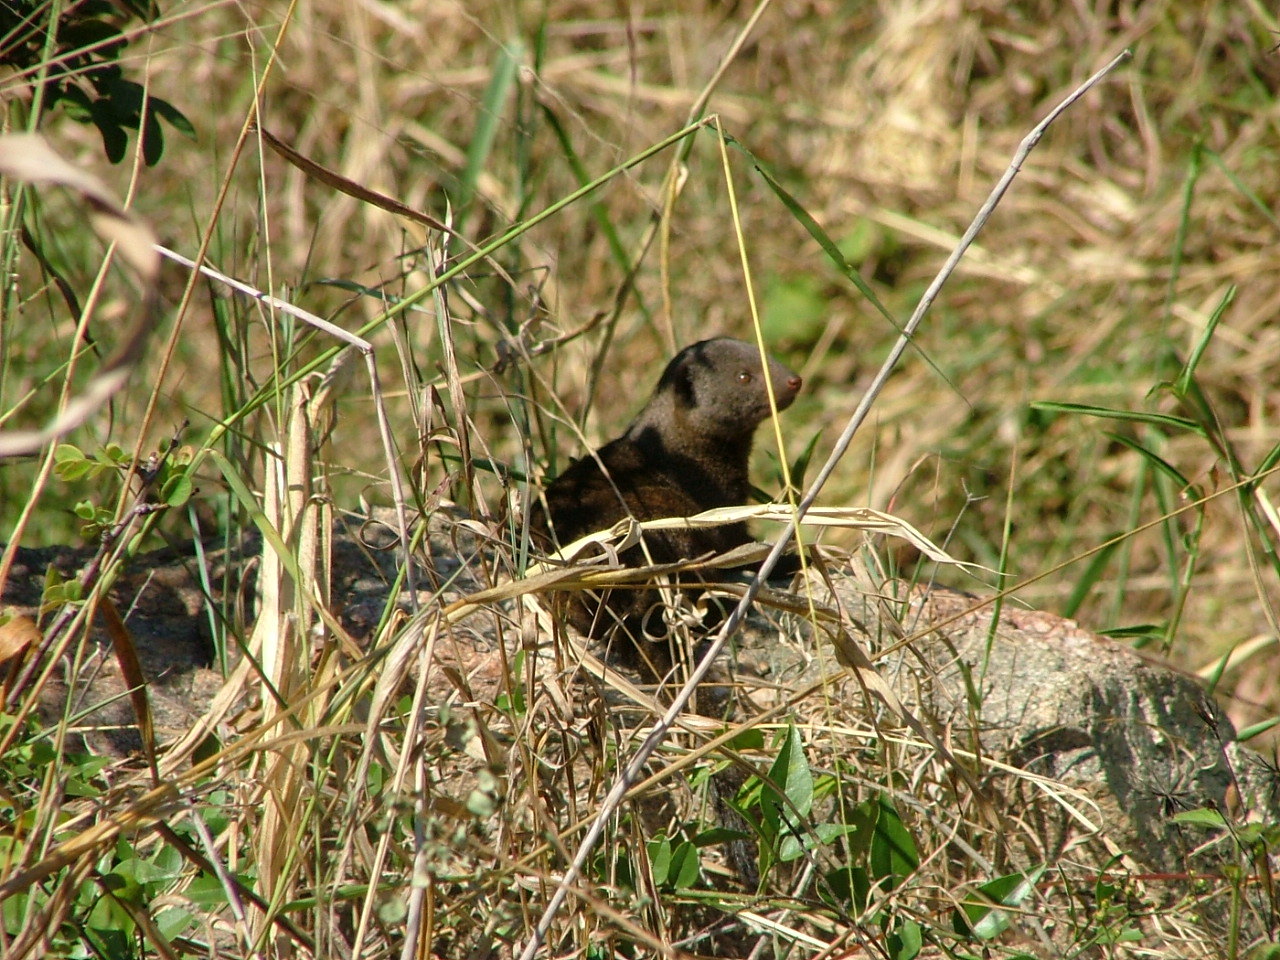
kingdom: Animalia
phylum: Chordata
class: Mammalia
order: Carnivora
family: Herpestidae
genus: Helogale
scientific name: Helogale parvula
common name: Common dwarf mongoose
